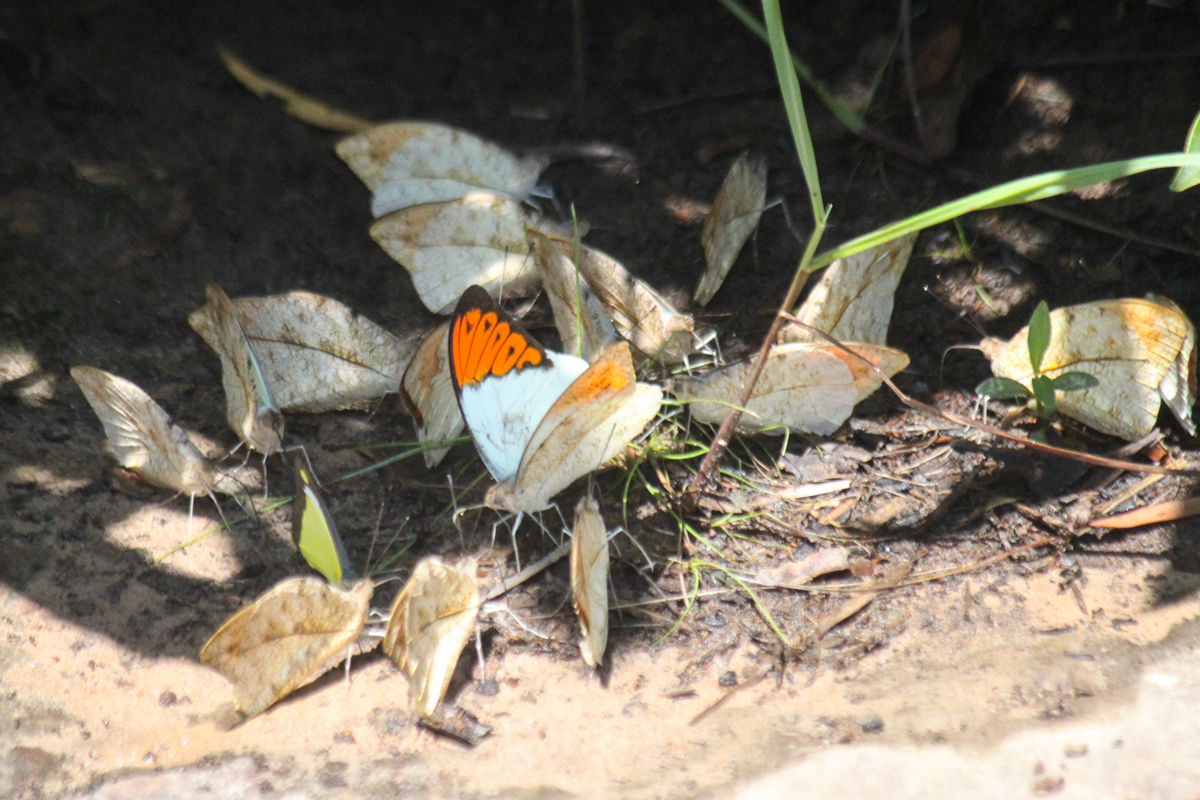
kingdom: Animalia
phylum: Arthropoda
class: Insecta
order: Lepidoptera
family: Pieridae
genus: Hebomoia
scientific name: Hebomoia glaucippe
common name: Great orange tip
